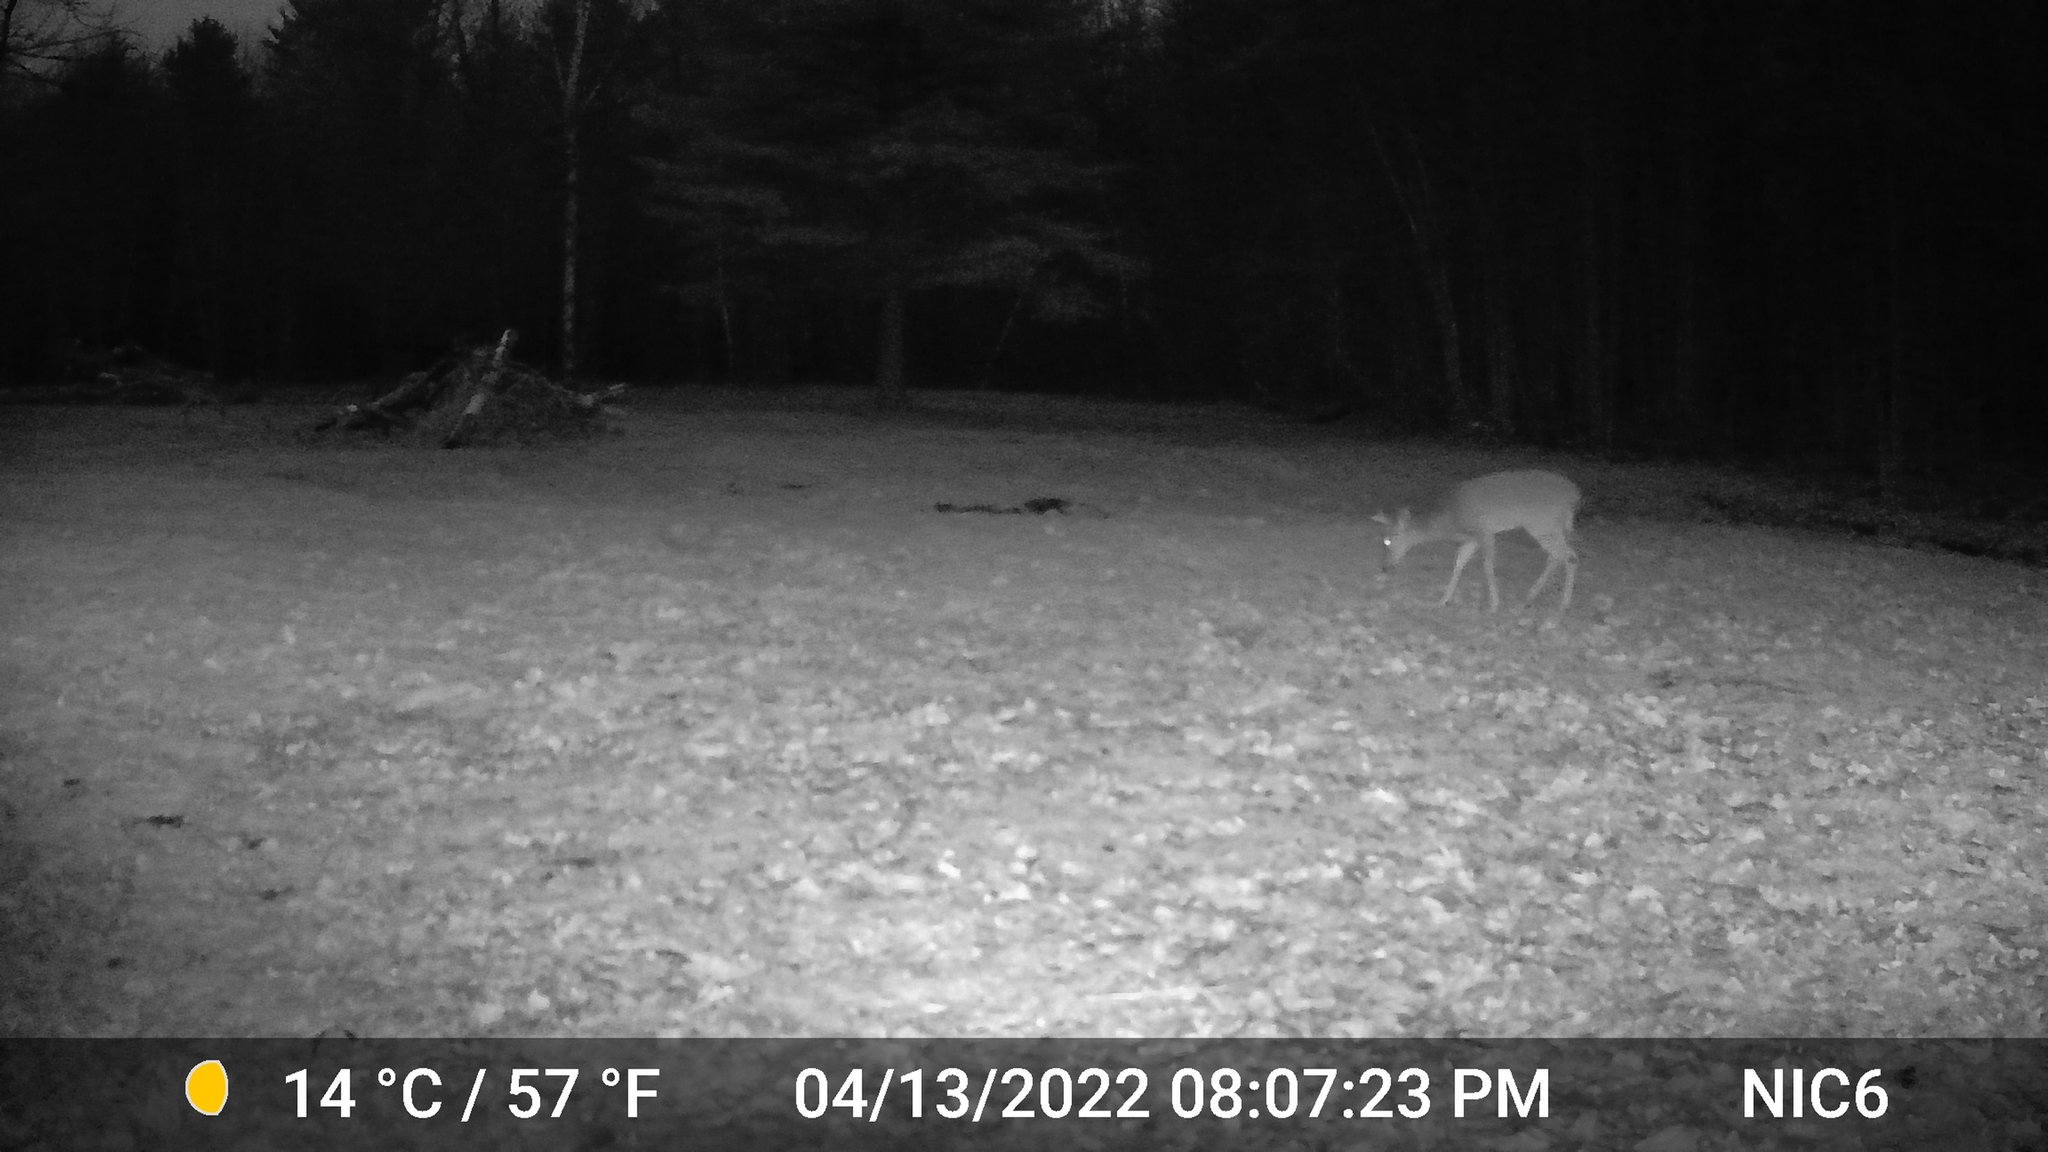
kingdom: Animalia
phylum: Chordata
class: Mammalia
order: Artiodactyla
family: Cervidae
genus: Odocoileus
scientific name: Odocoileus virginianus
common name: White-tailed deer
